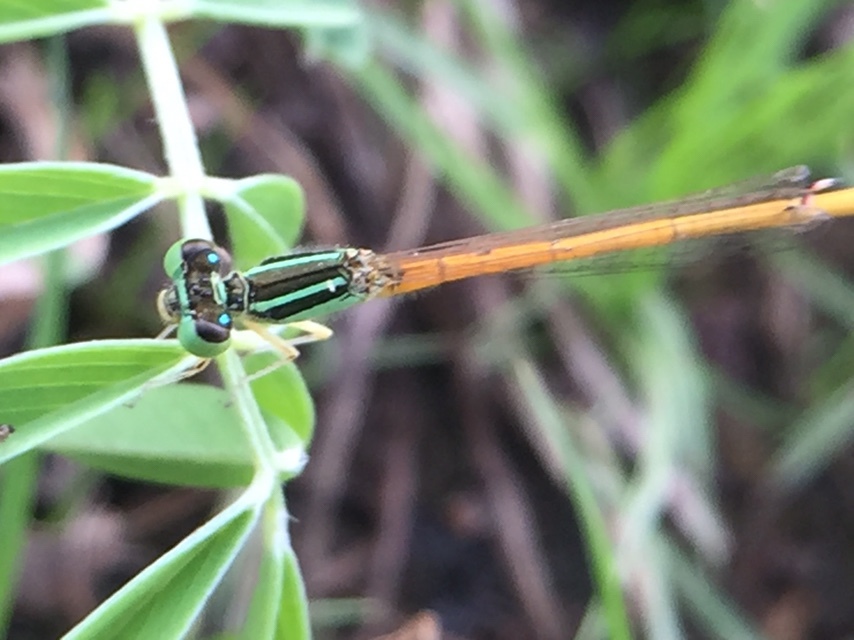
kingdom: Animalia
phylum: Arthropoda
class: Insecta
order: Odonata
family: Coenagrionidae
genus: Ischnura
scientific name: Ischnura rubilio
